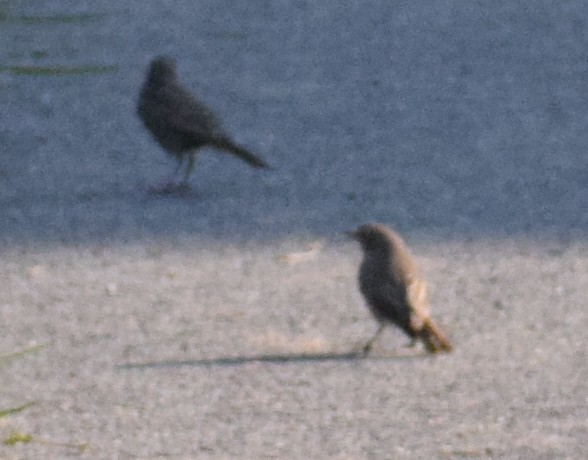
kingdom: Animalia
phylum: Chordata
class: Aves
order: Passeriformes
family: Muscicapidae
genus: Phoenicurus
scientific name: Phoenicurus ochruros
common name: Black redstart
